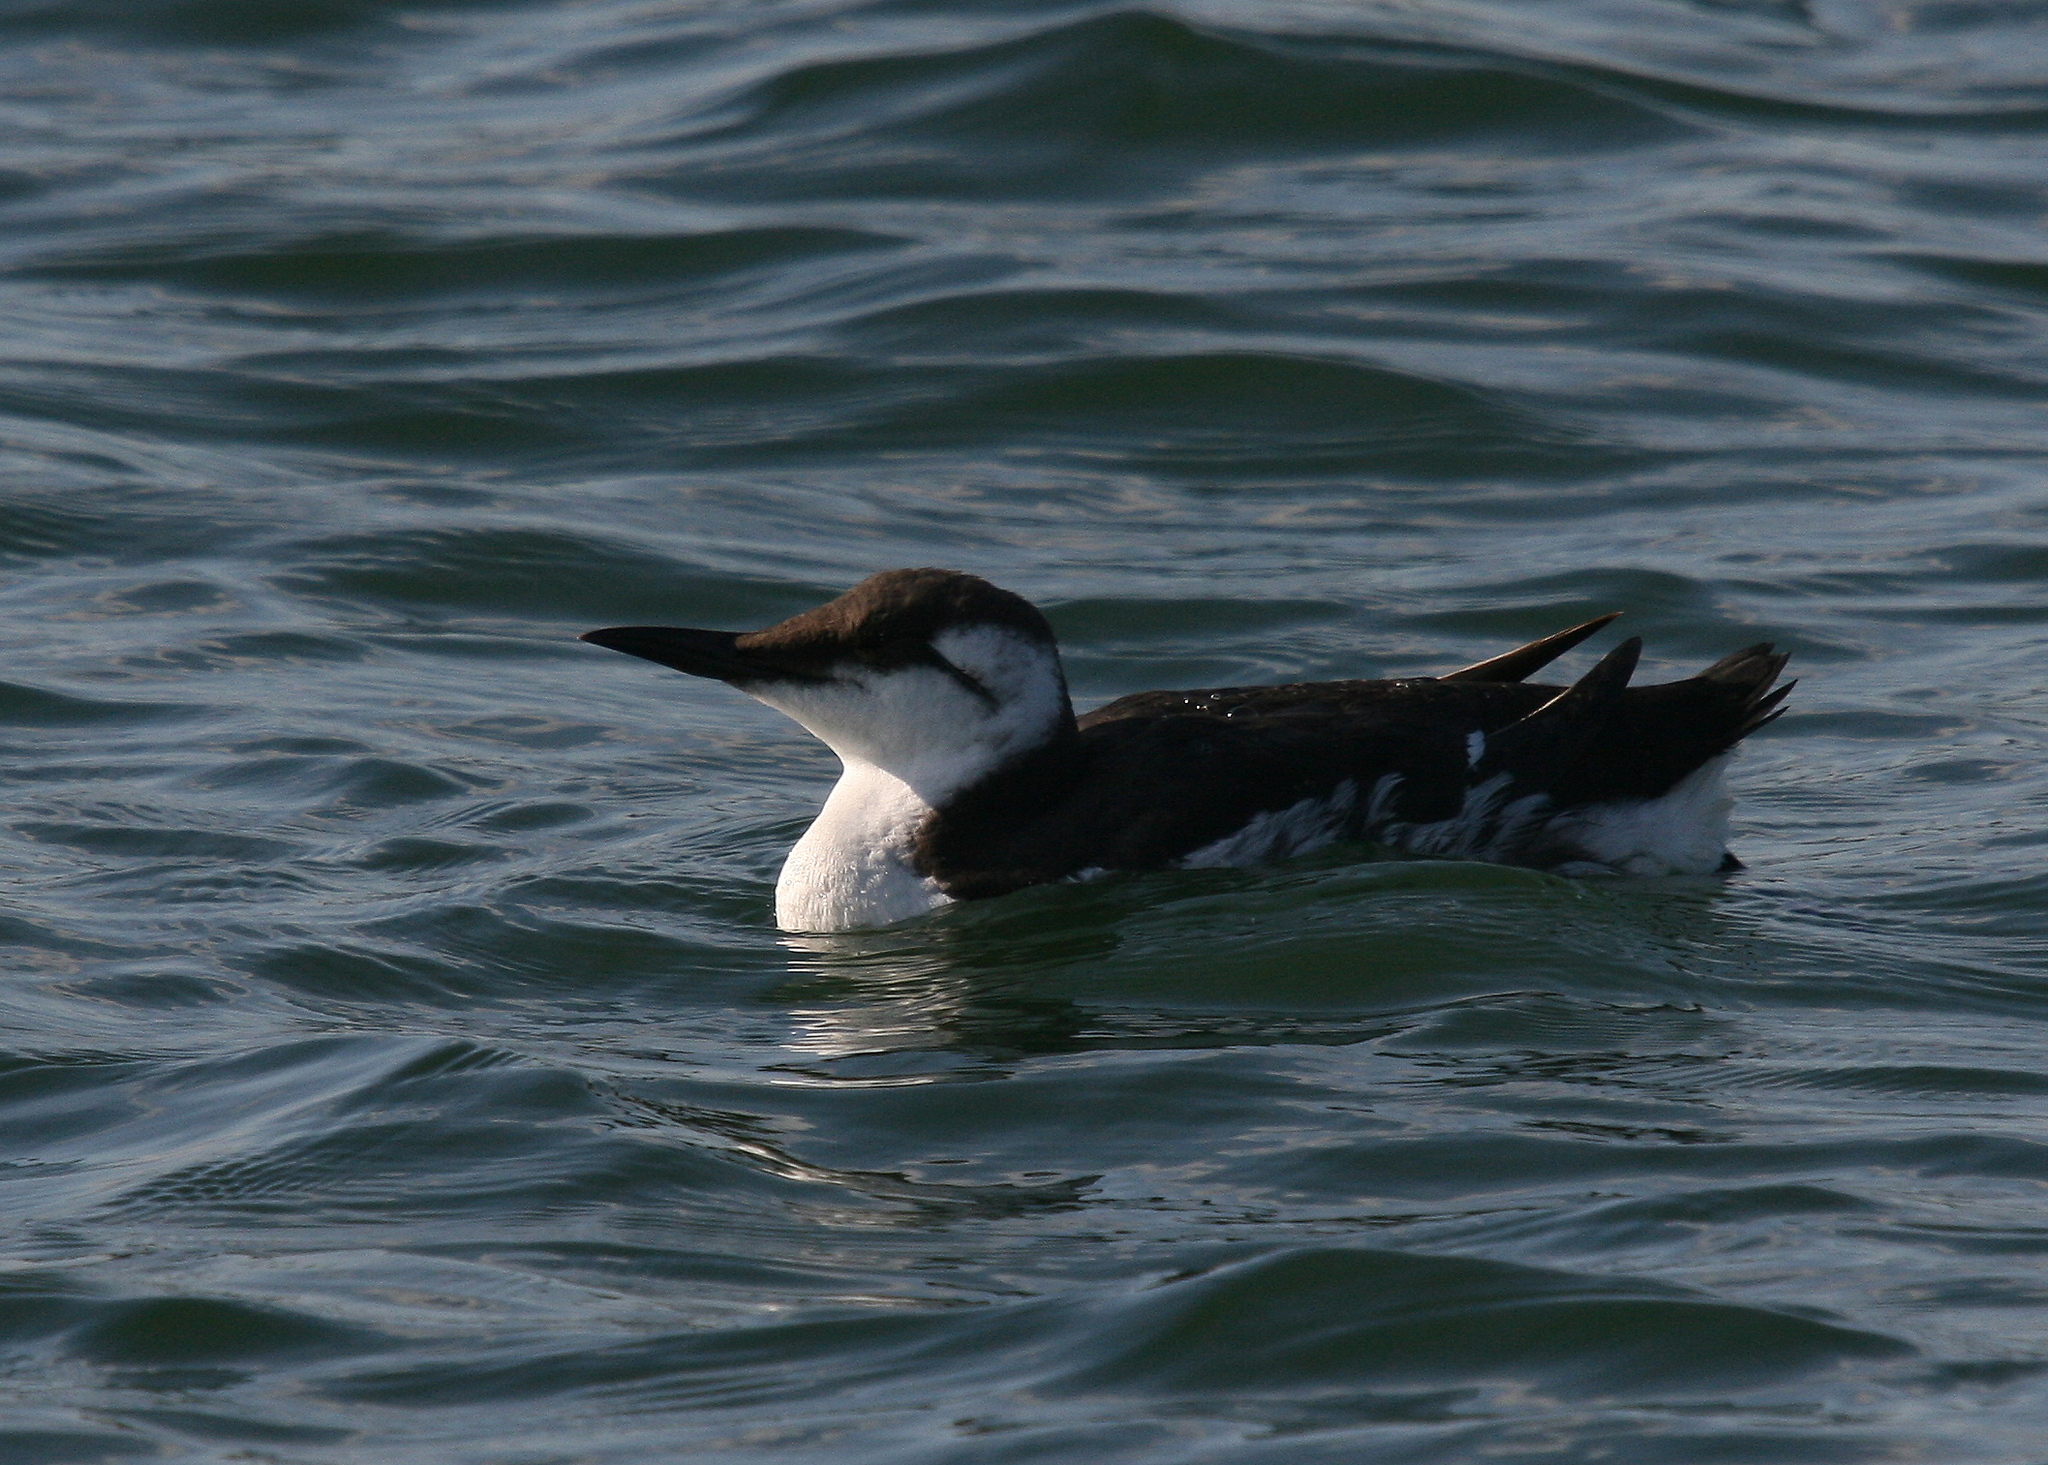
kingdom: Animalia
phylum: Chordata
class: Aves
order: Charadriiformes
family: Alcidae
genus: Uria
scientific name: Uria aalge
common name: Common murre
